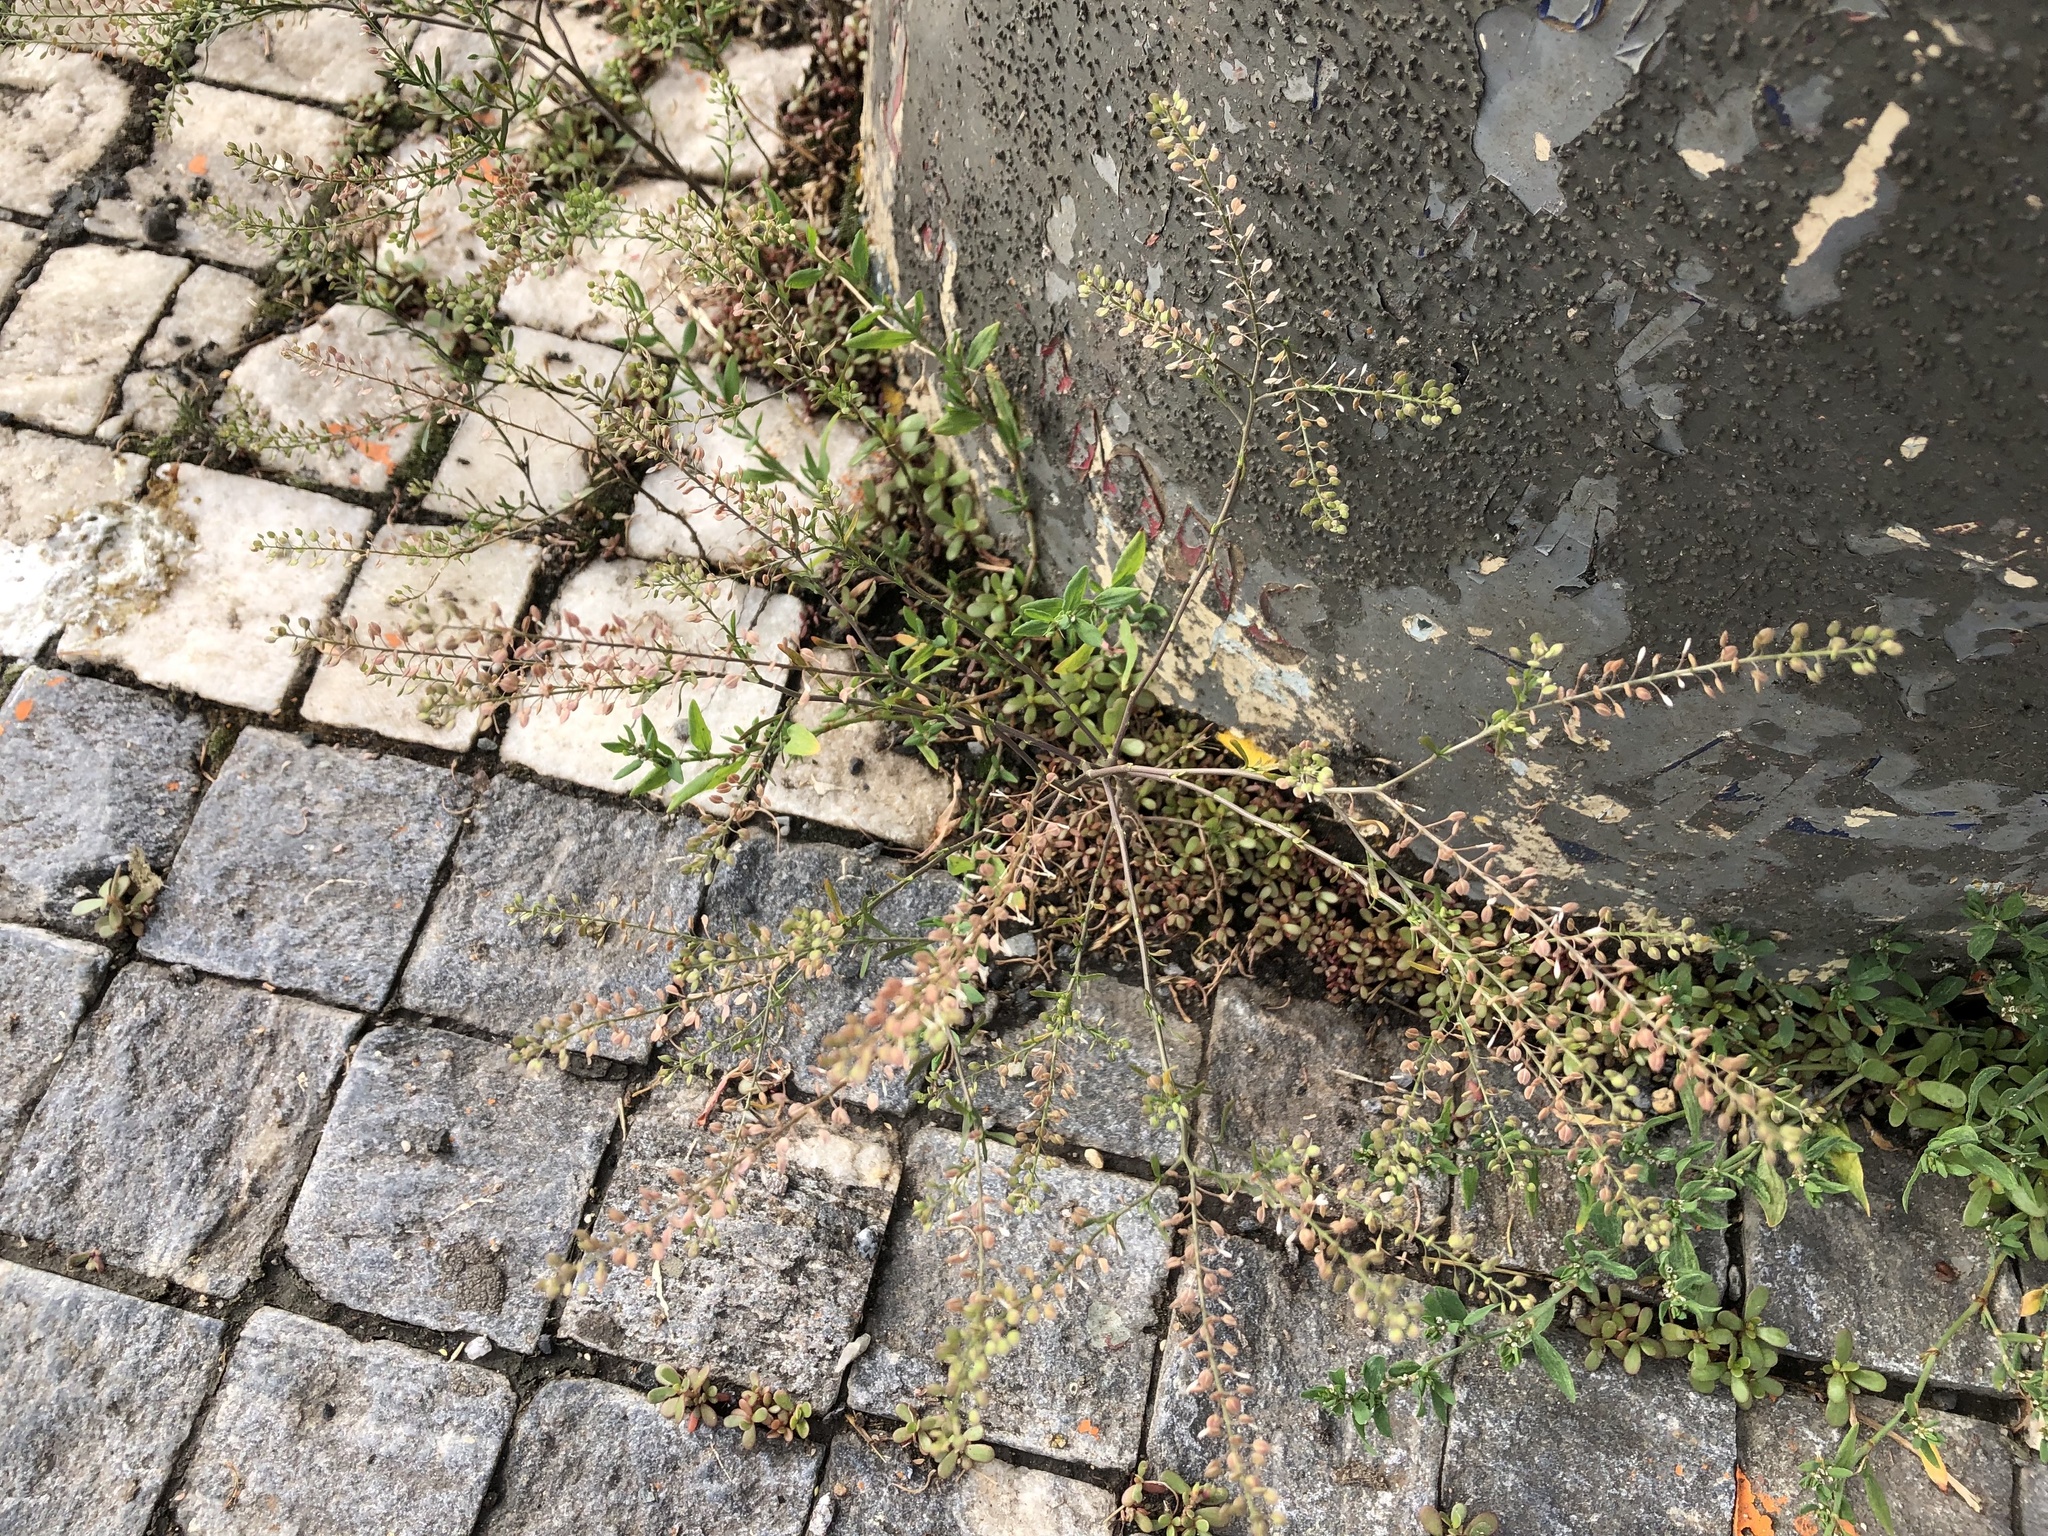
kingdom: Plantae
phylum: Tracheophyta
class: Magnoliopsida
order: Brassicales
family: Brassicaceae
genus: Lepidium
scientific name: Lepidium ruderale
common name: Narrow-leaved pepperwort
